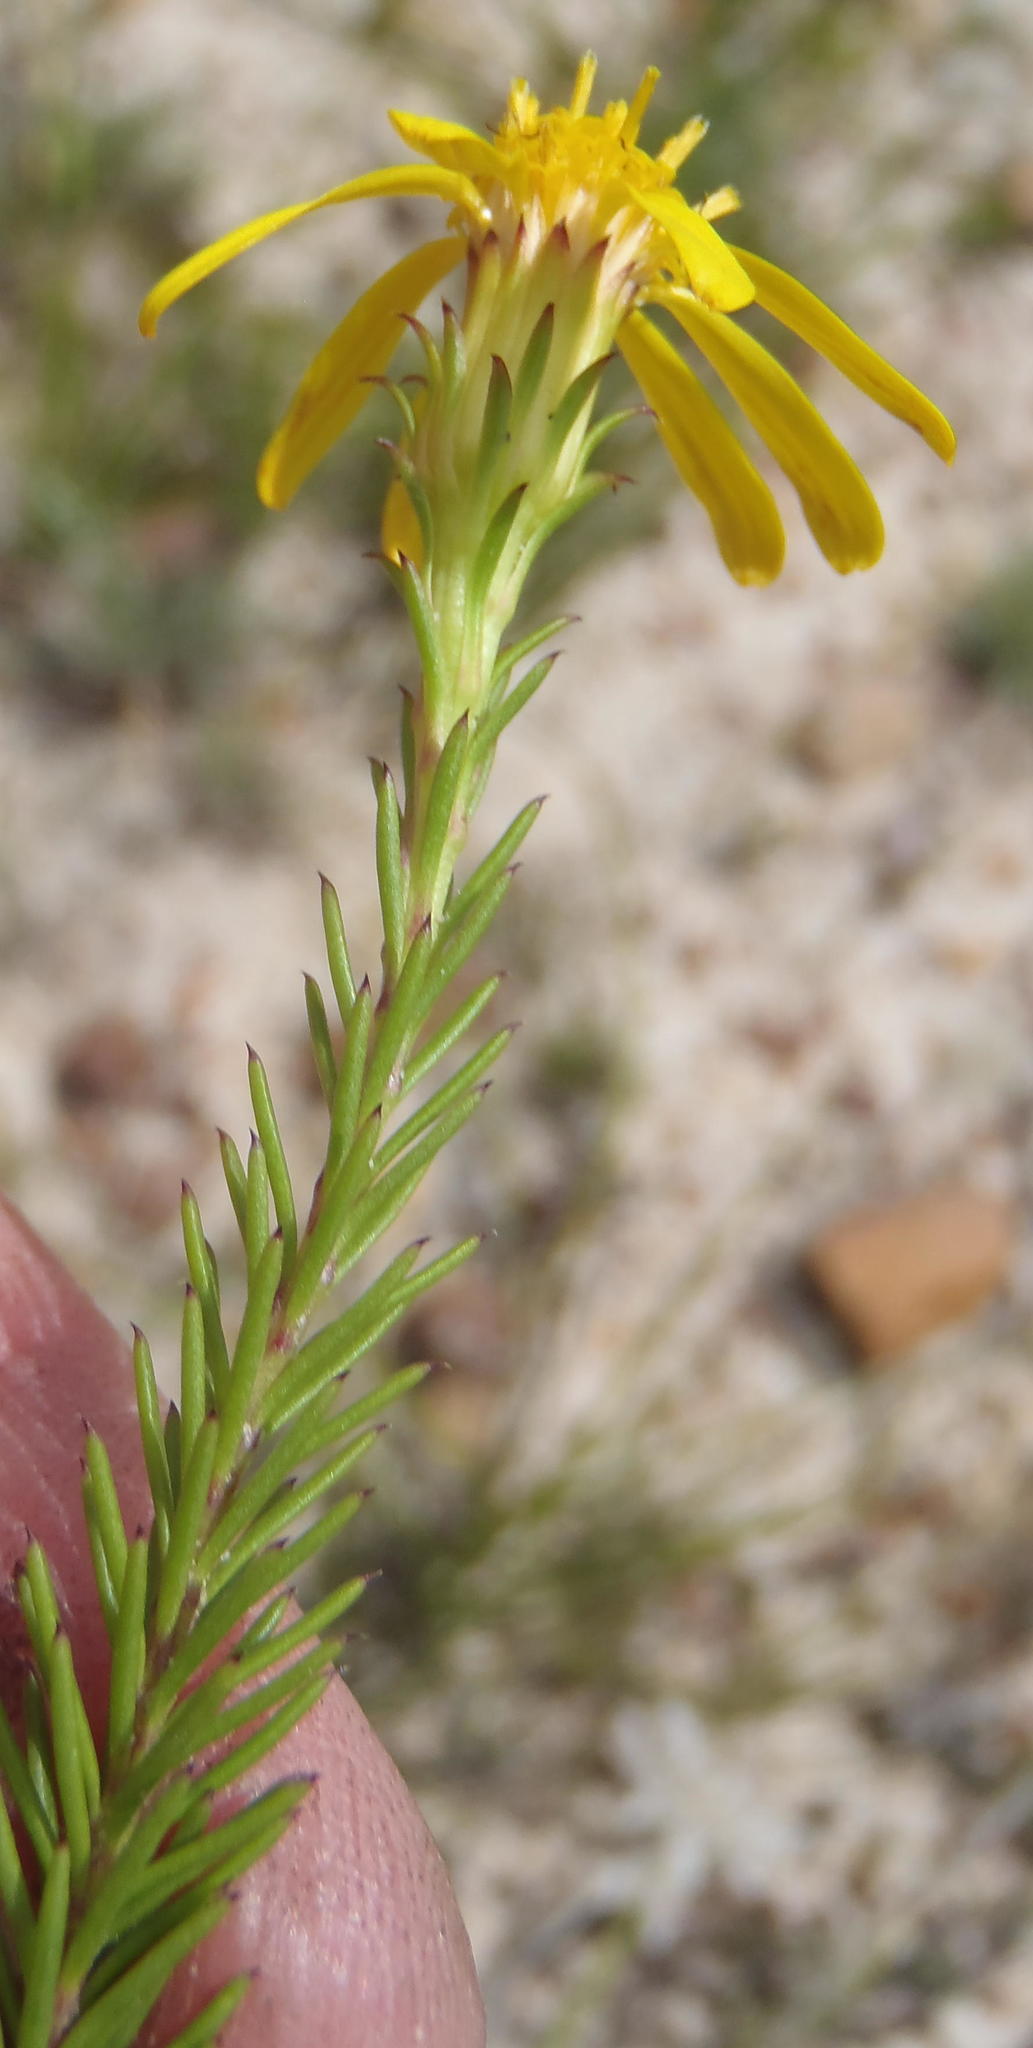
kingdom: Plantae
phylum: Tracheophyta
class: Magnoliopsida
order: Asterales
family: Asteraceae
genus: Senecio
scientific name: Senecio pinifolius
